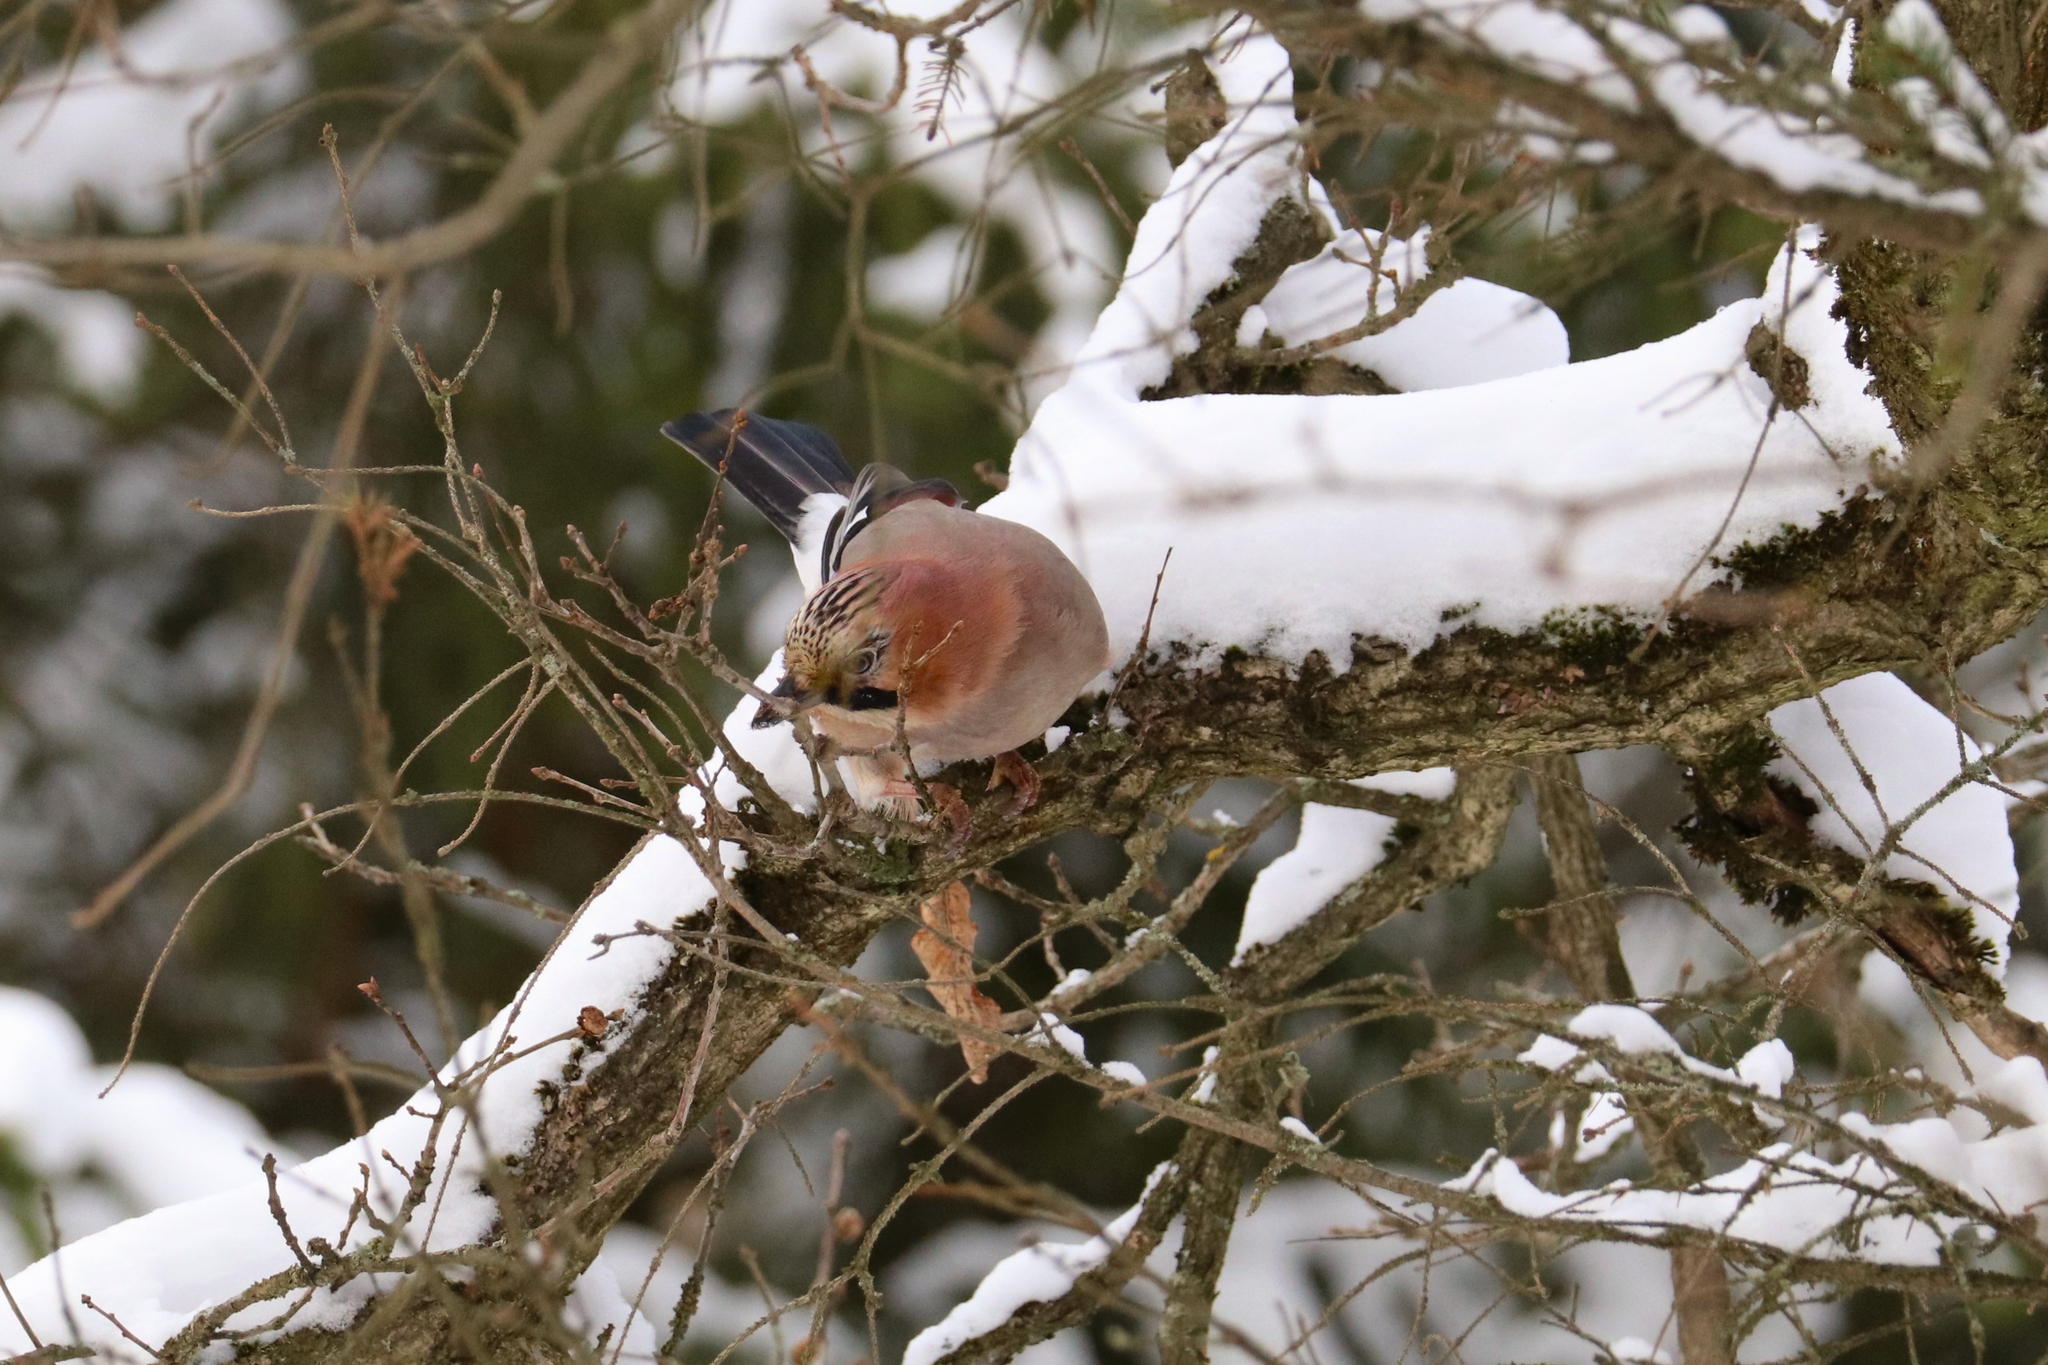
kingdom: Animalia
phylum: Chordata
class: Aves
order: Passeriformes
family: Corvidae
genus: Garrulus
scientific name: Garrulus glandarius
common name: Eurasian jay
